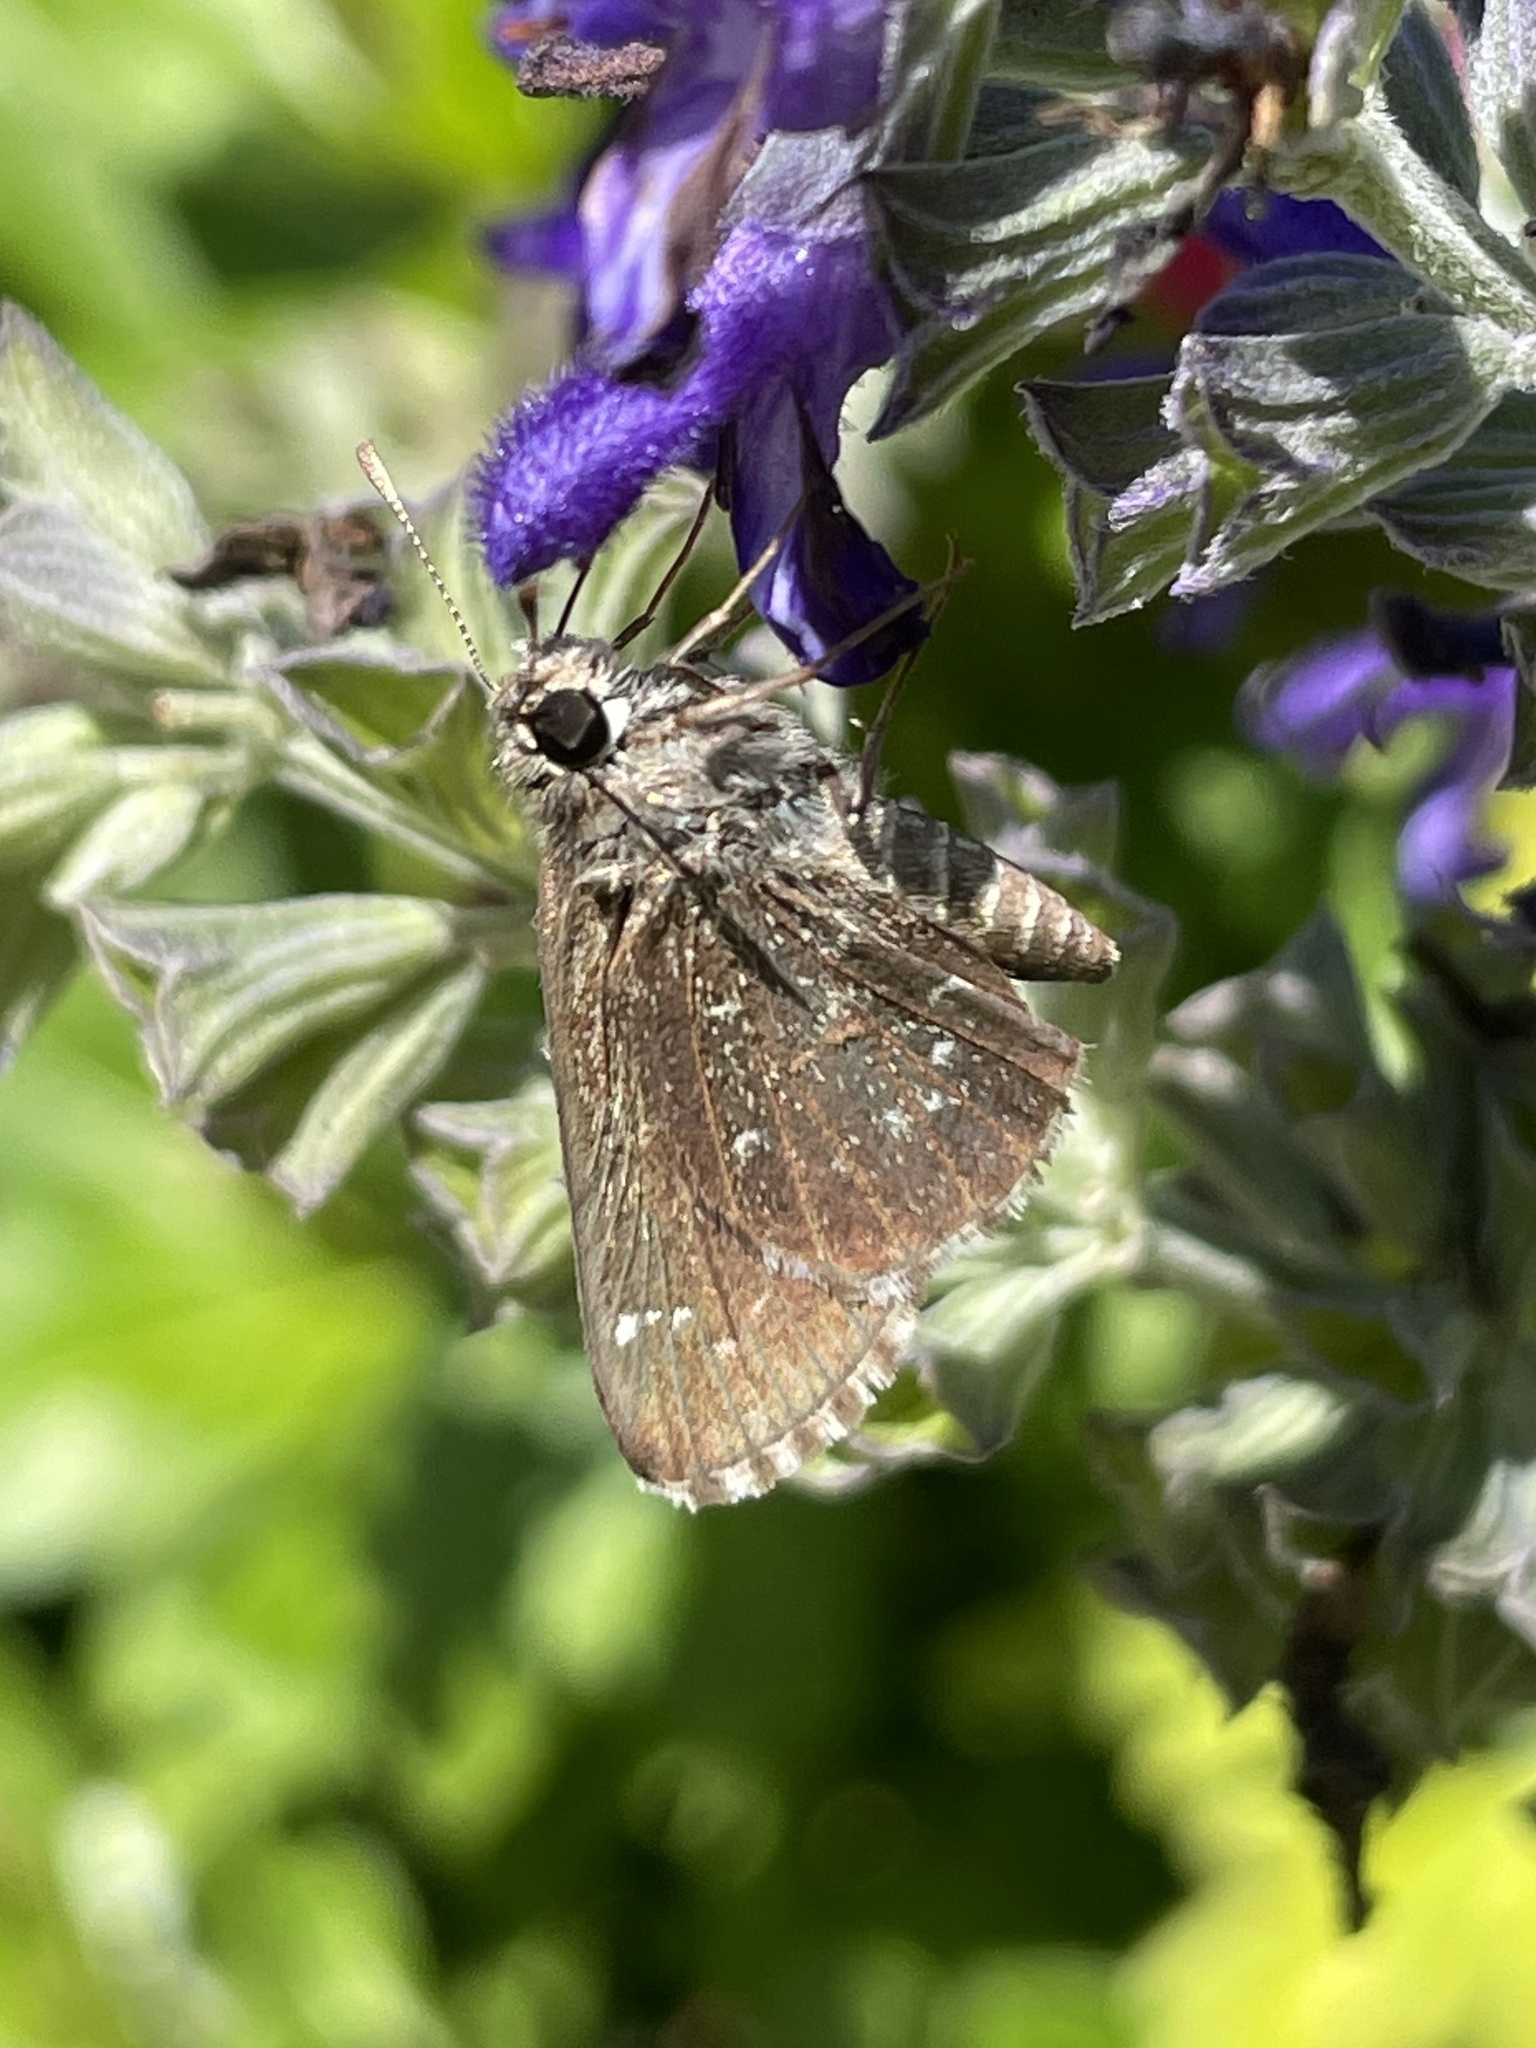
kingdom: Animalia
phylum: Arthropoda
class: Insecta
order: Lepidoptera
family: Hesperiidae
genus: Mastor
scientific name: Mastor celia
